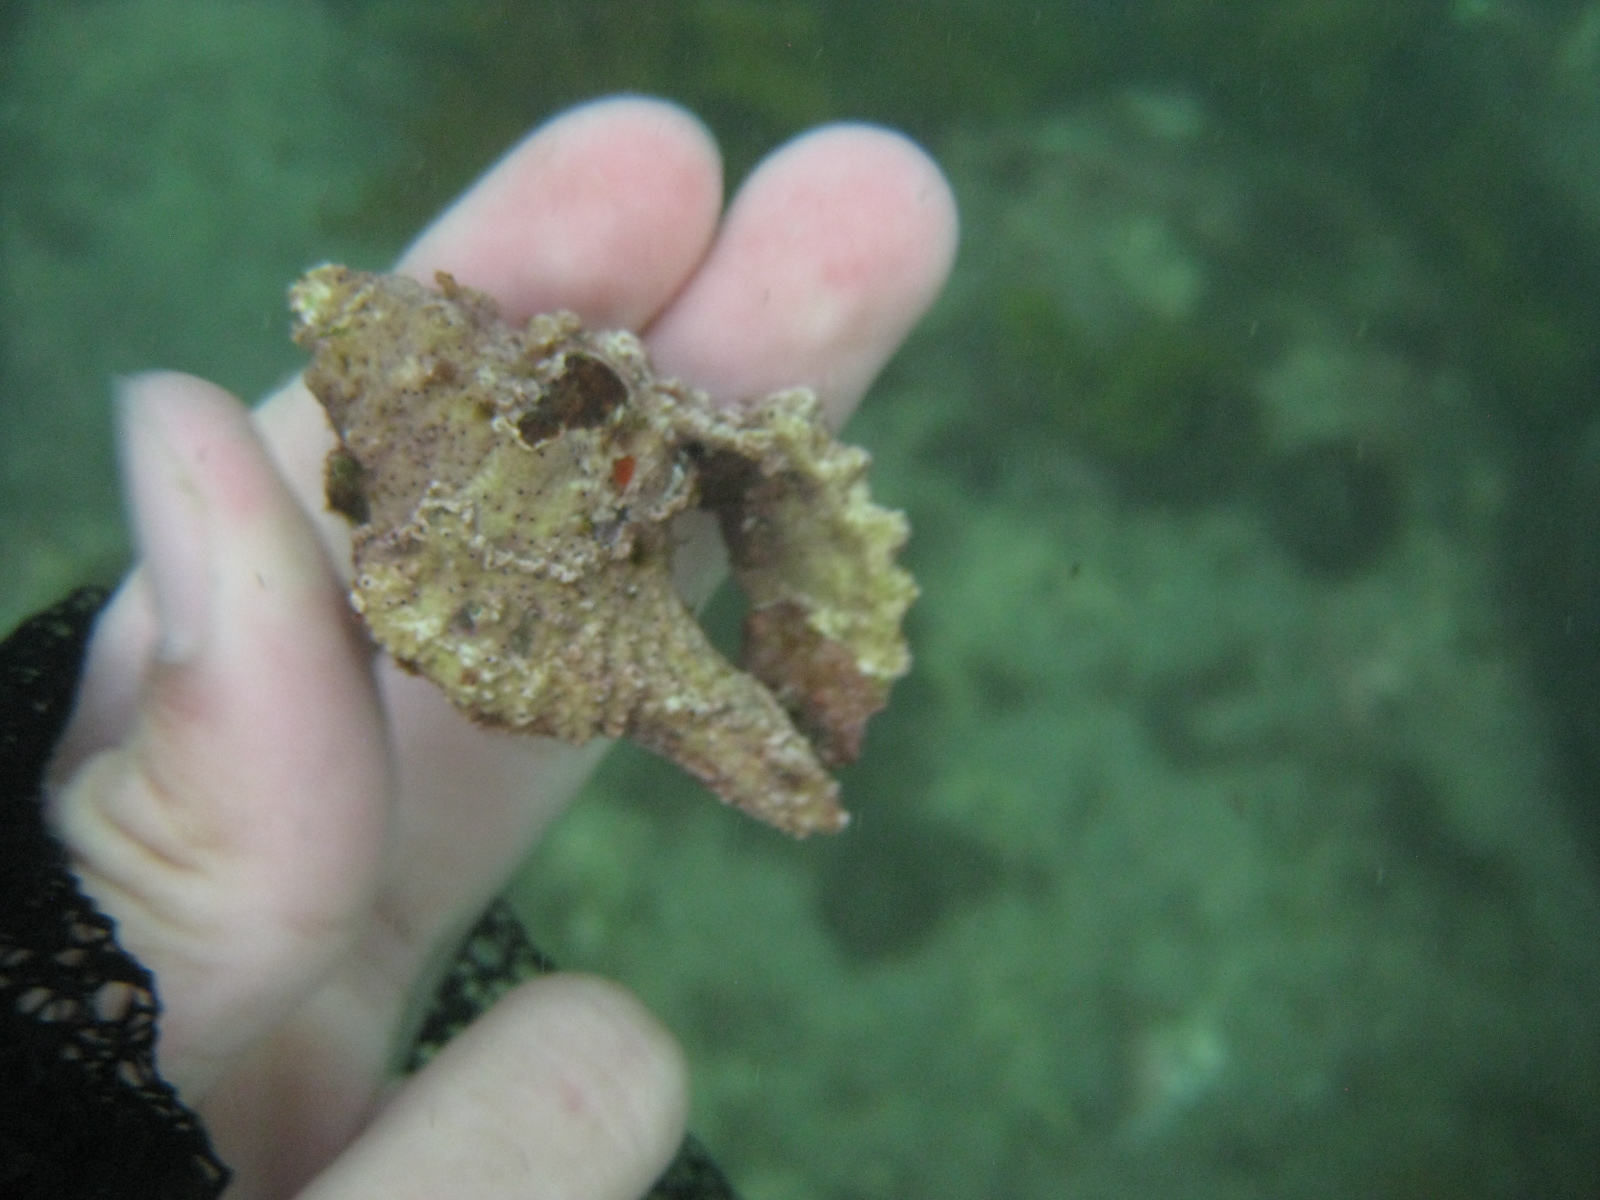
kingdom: Animalia
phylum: Mollusca
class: Gastropoda
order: Littorinimorpha
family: Cymatiidae
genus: Cabestana
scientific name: Cabestana spengleri
